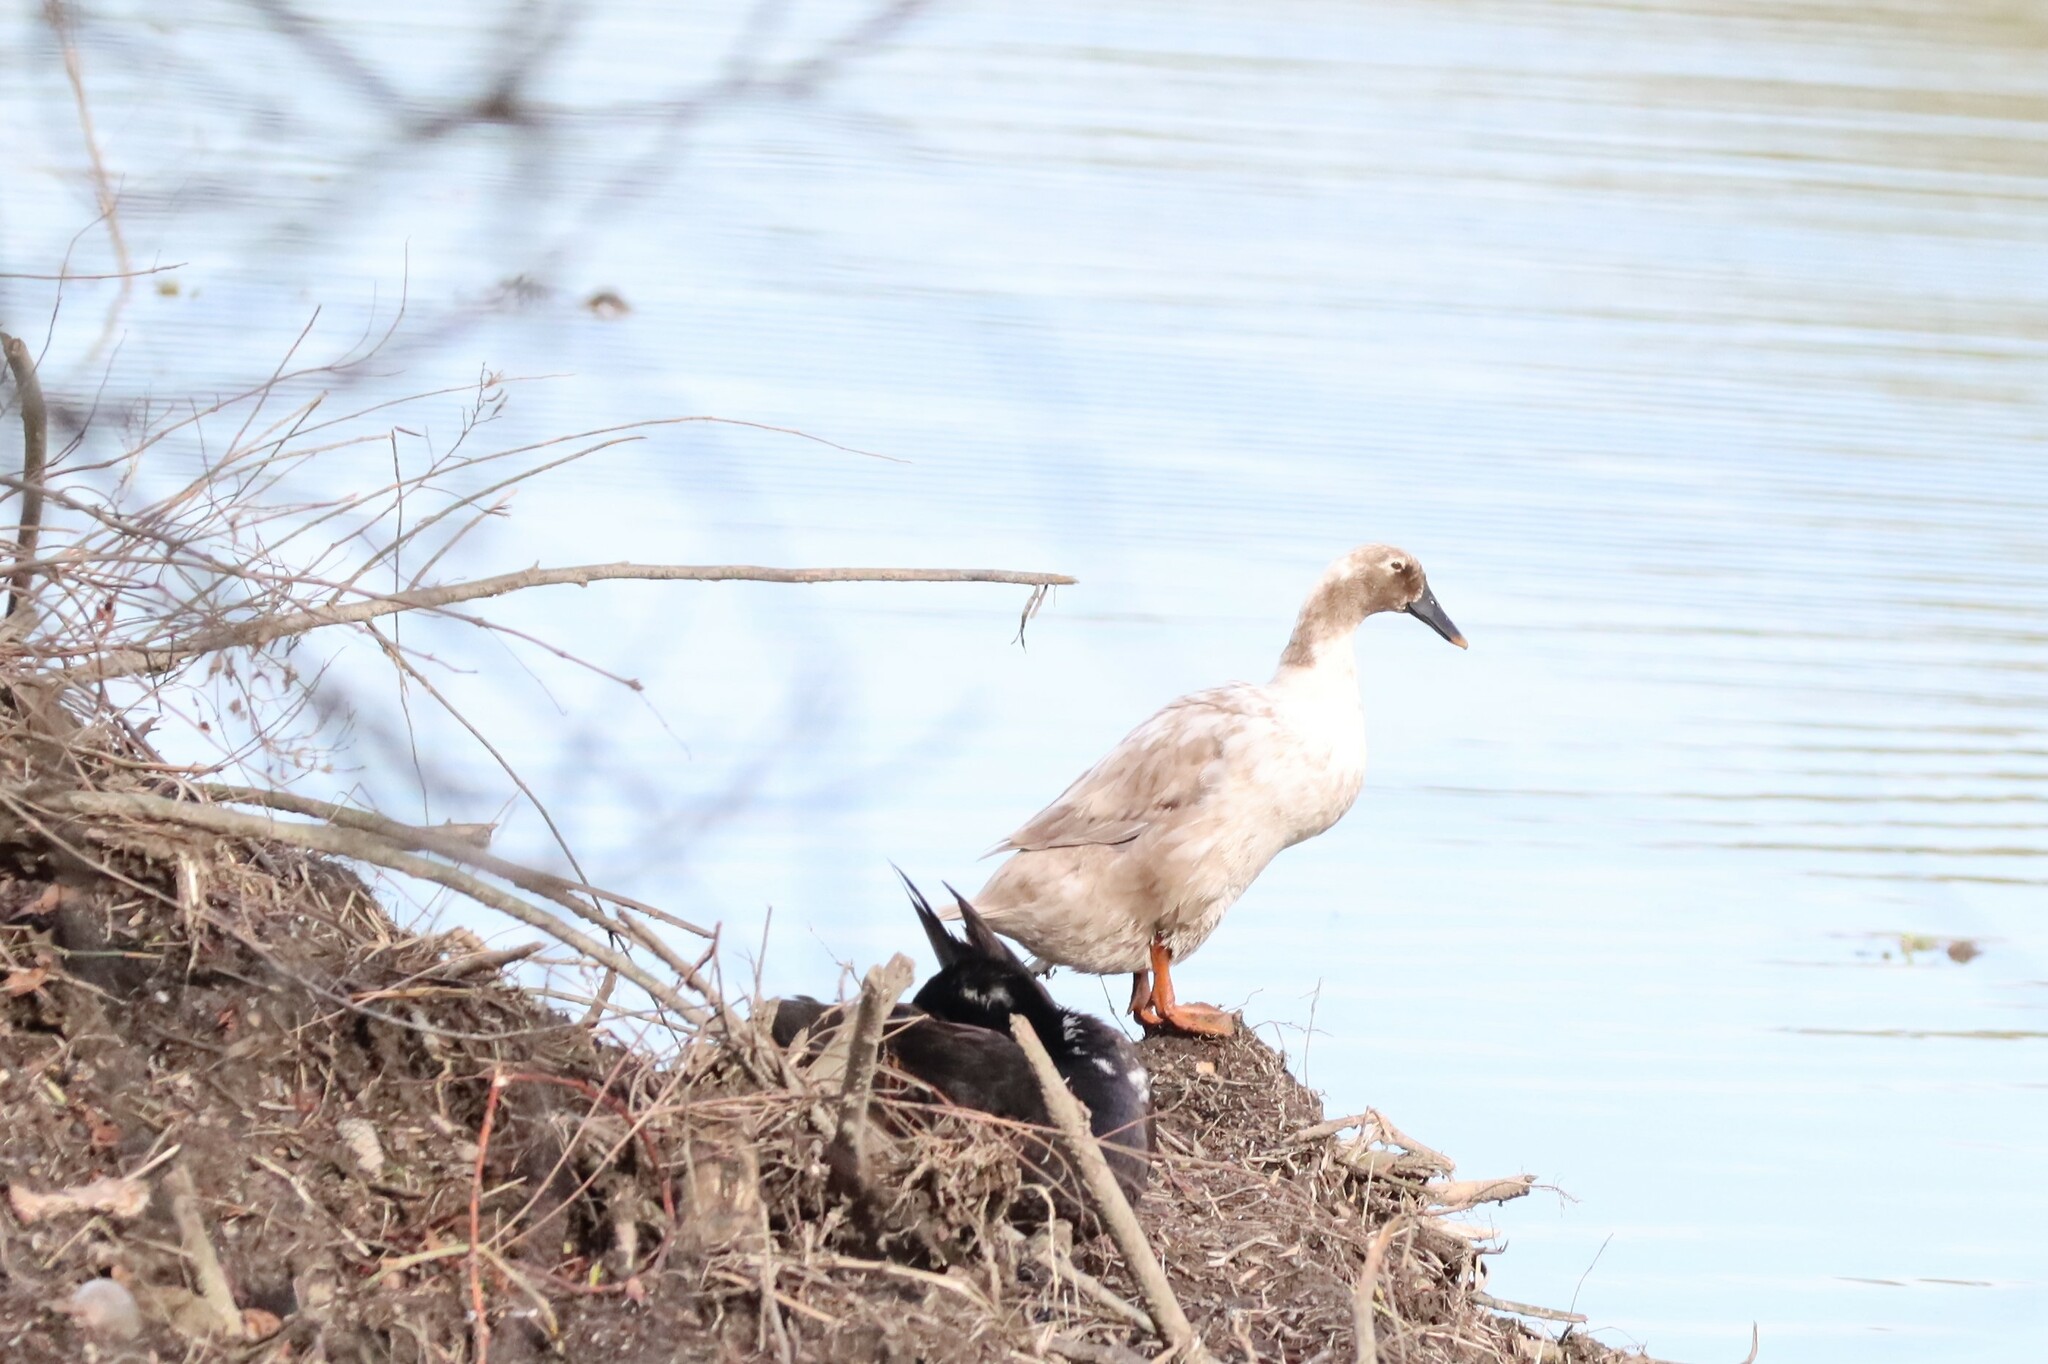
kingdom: Animalia
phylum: Chordata
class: Aves
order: Anseriformes
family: Anatidae
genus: Anas
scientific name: Anas platyrhynchos
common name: Mallard
